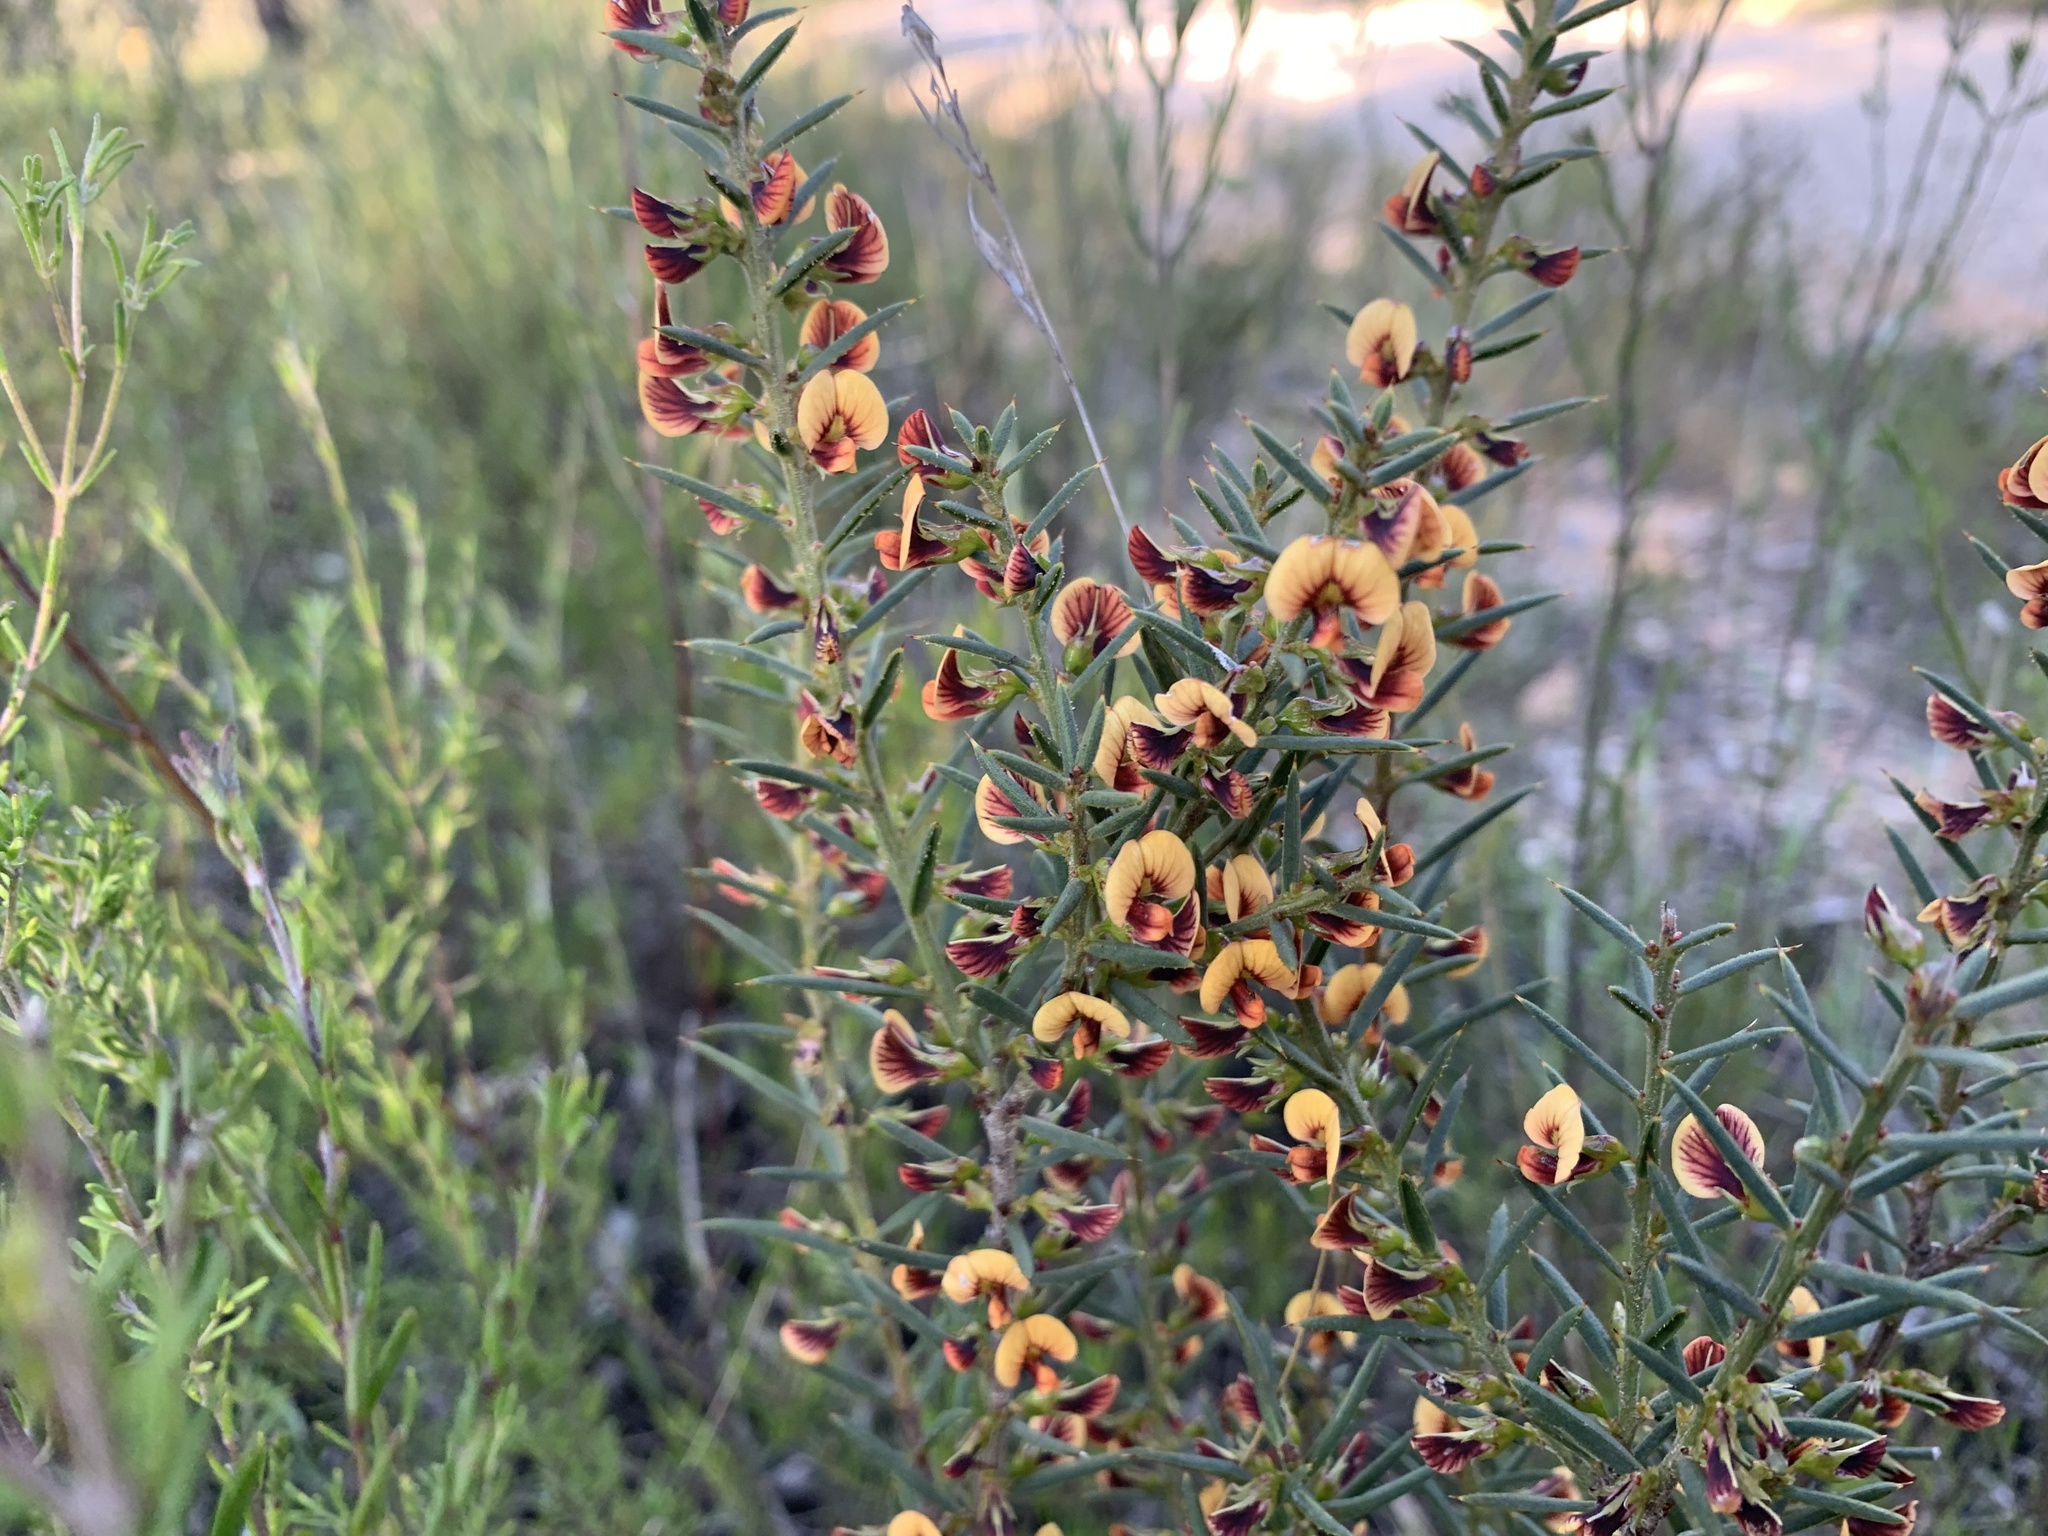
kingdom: Plantae
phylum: Tracheophyta
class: Magnoliopsida
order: Fabales
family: Fabaceae
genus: Daviesia
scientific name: Daviesia acicularis
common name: Sandplain bitter-pea
